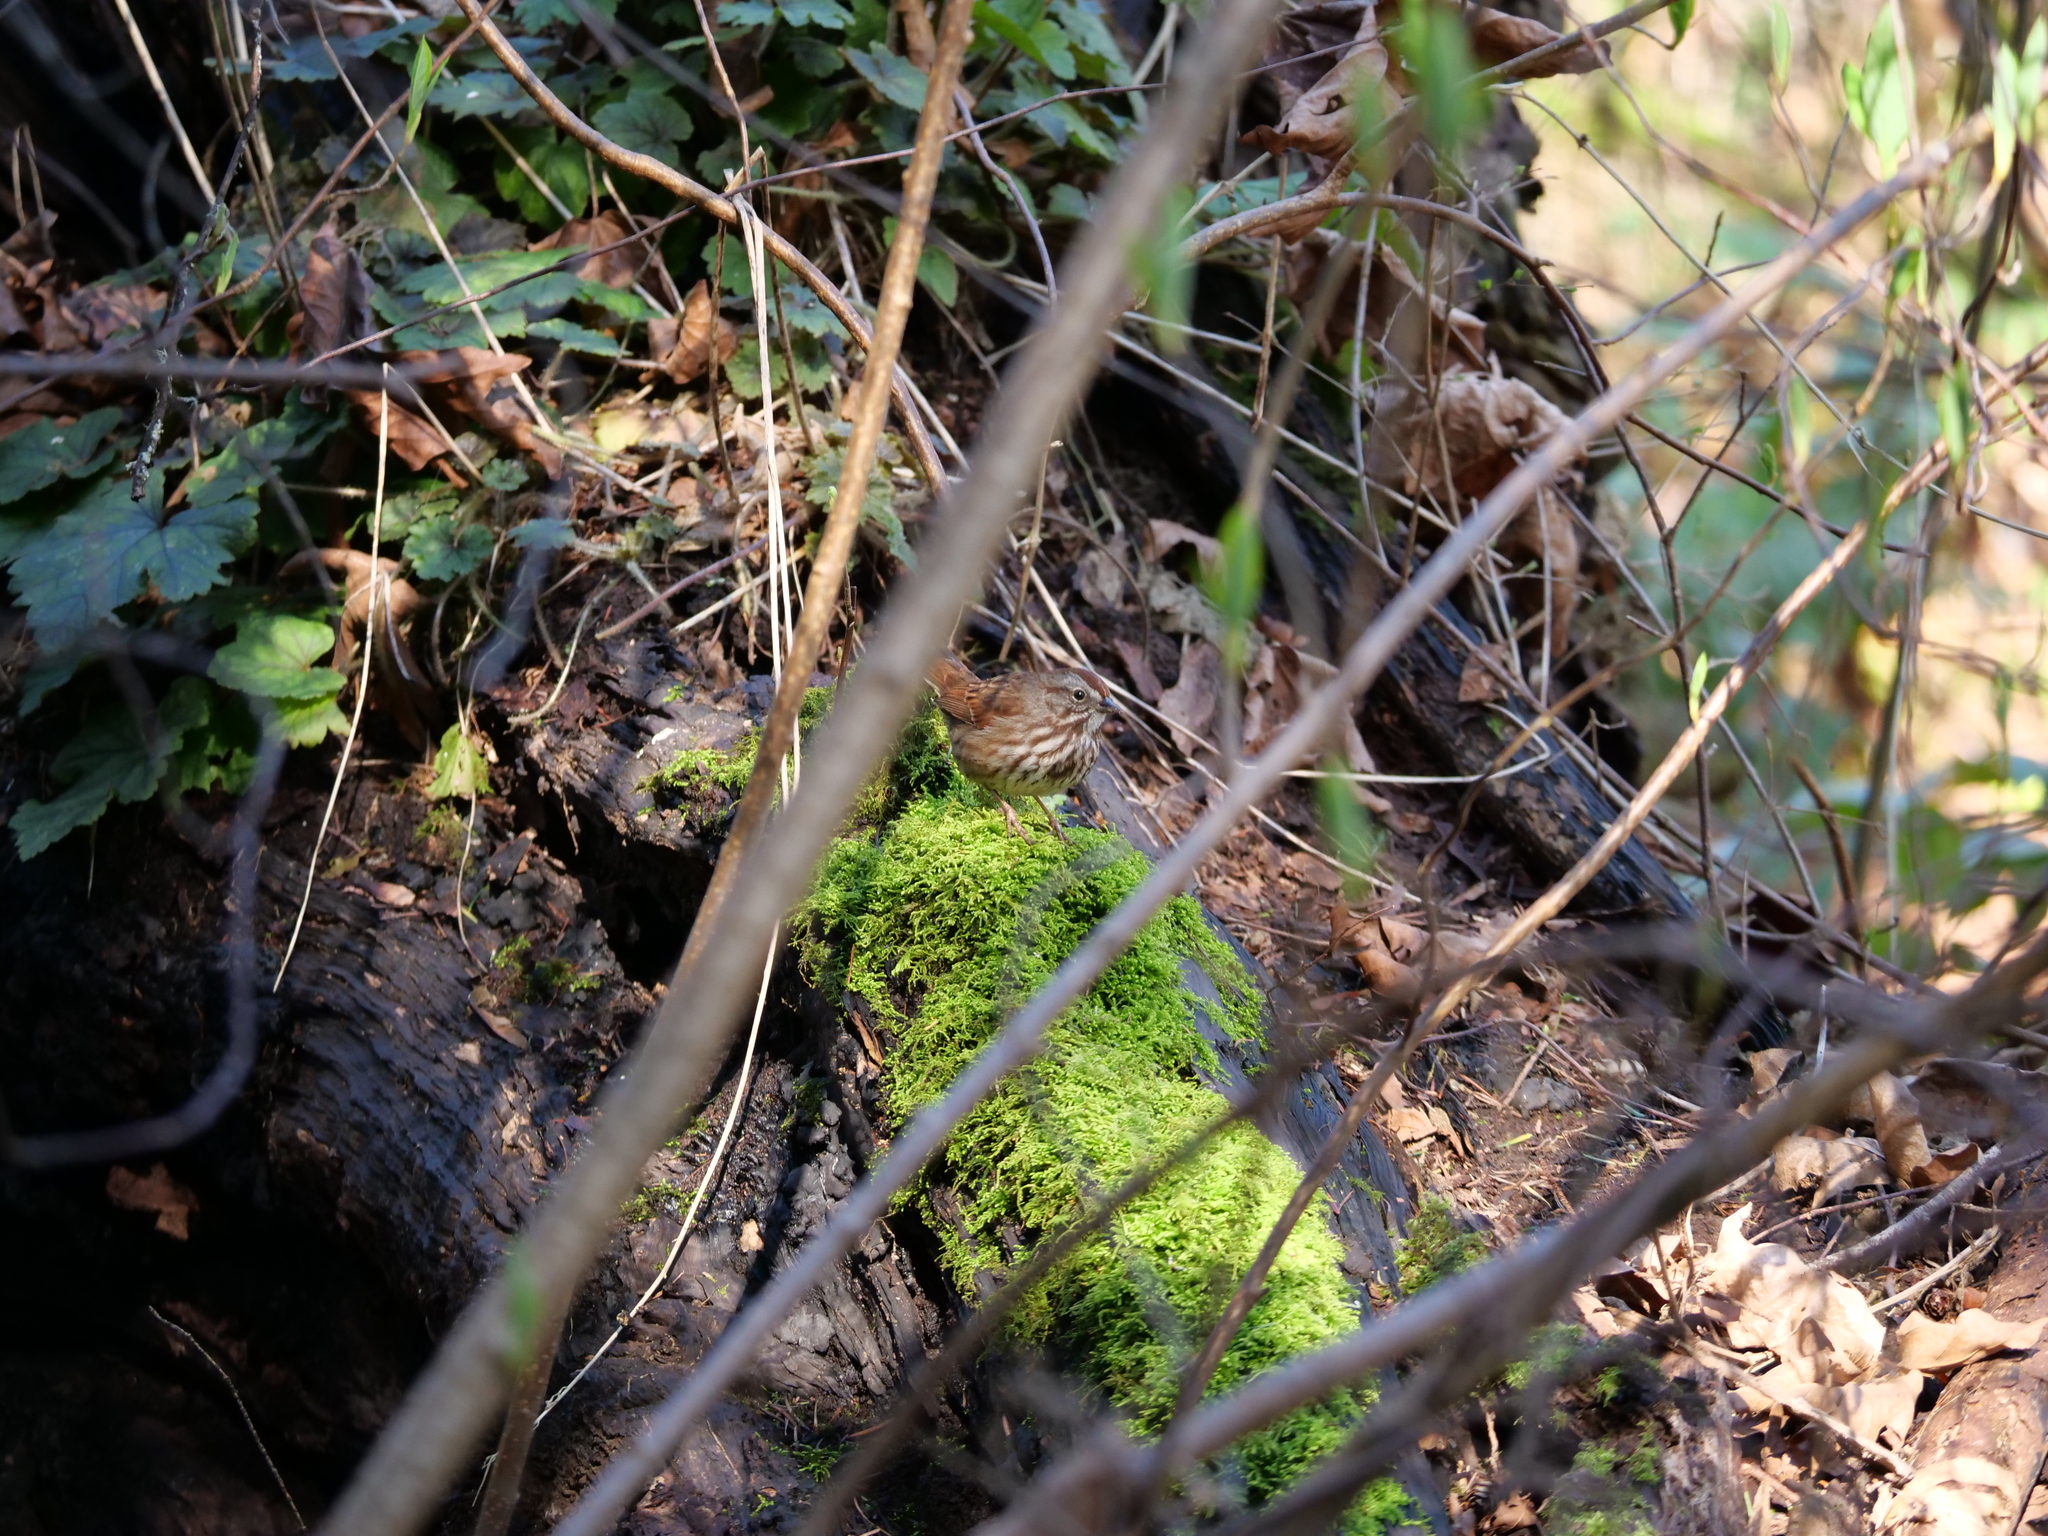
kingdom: Animalia
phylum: Chordata
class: Aves
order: Passeriformes
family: Passerellidae
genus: Melospiza
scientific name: Melospiza melodia
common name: Song sparrow
